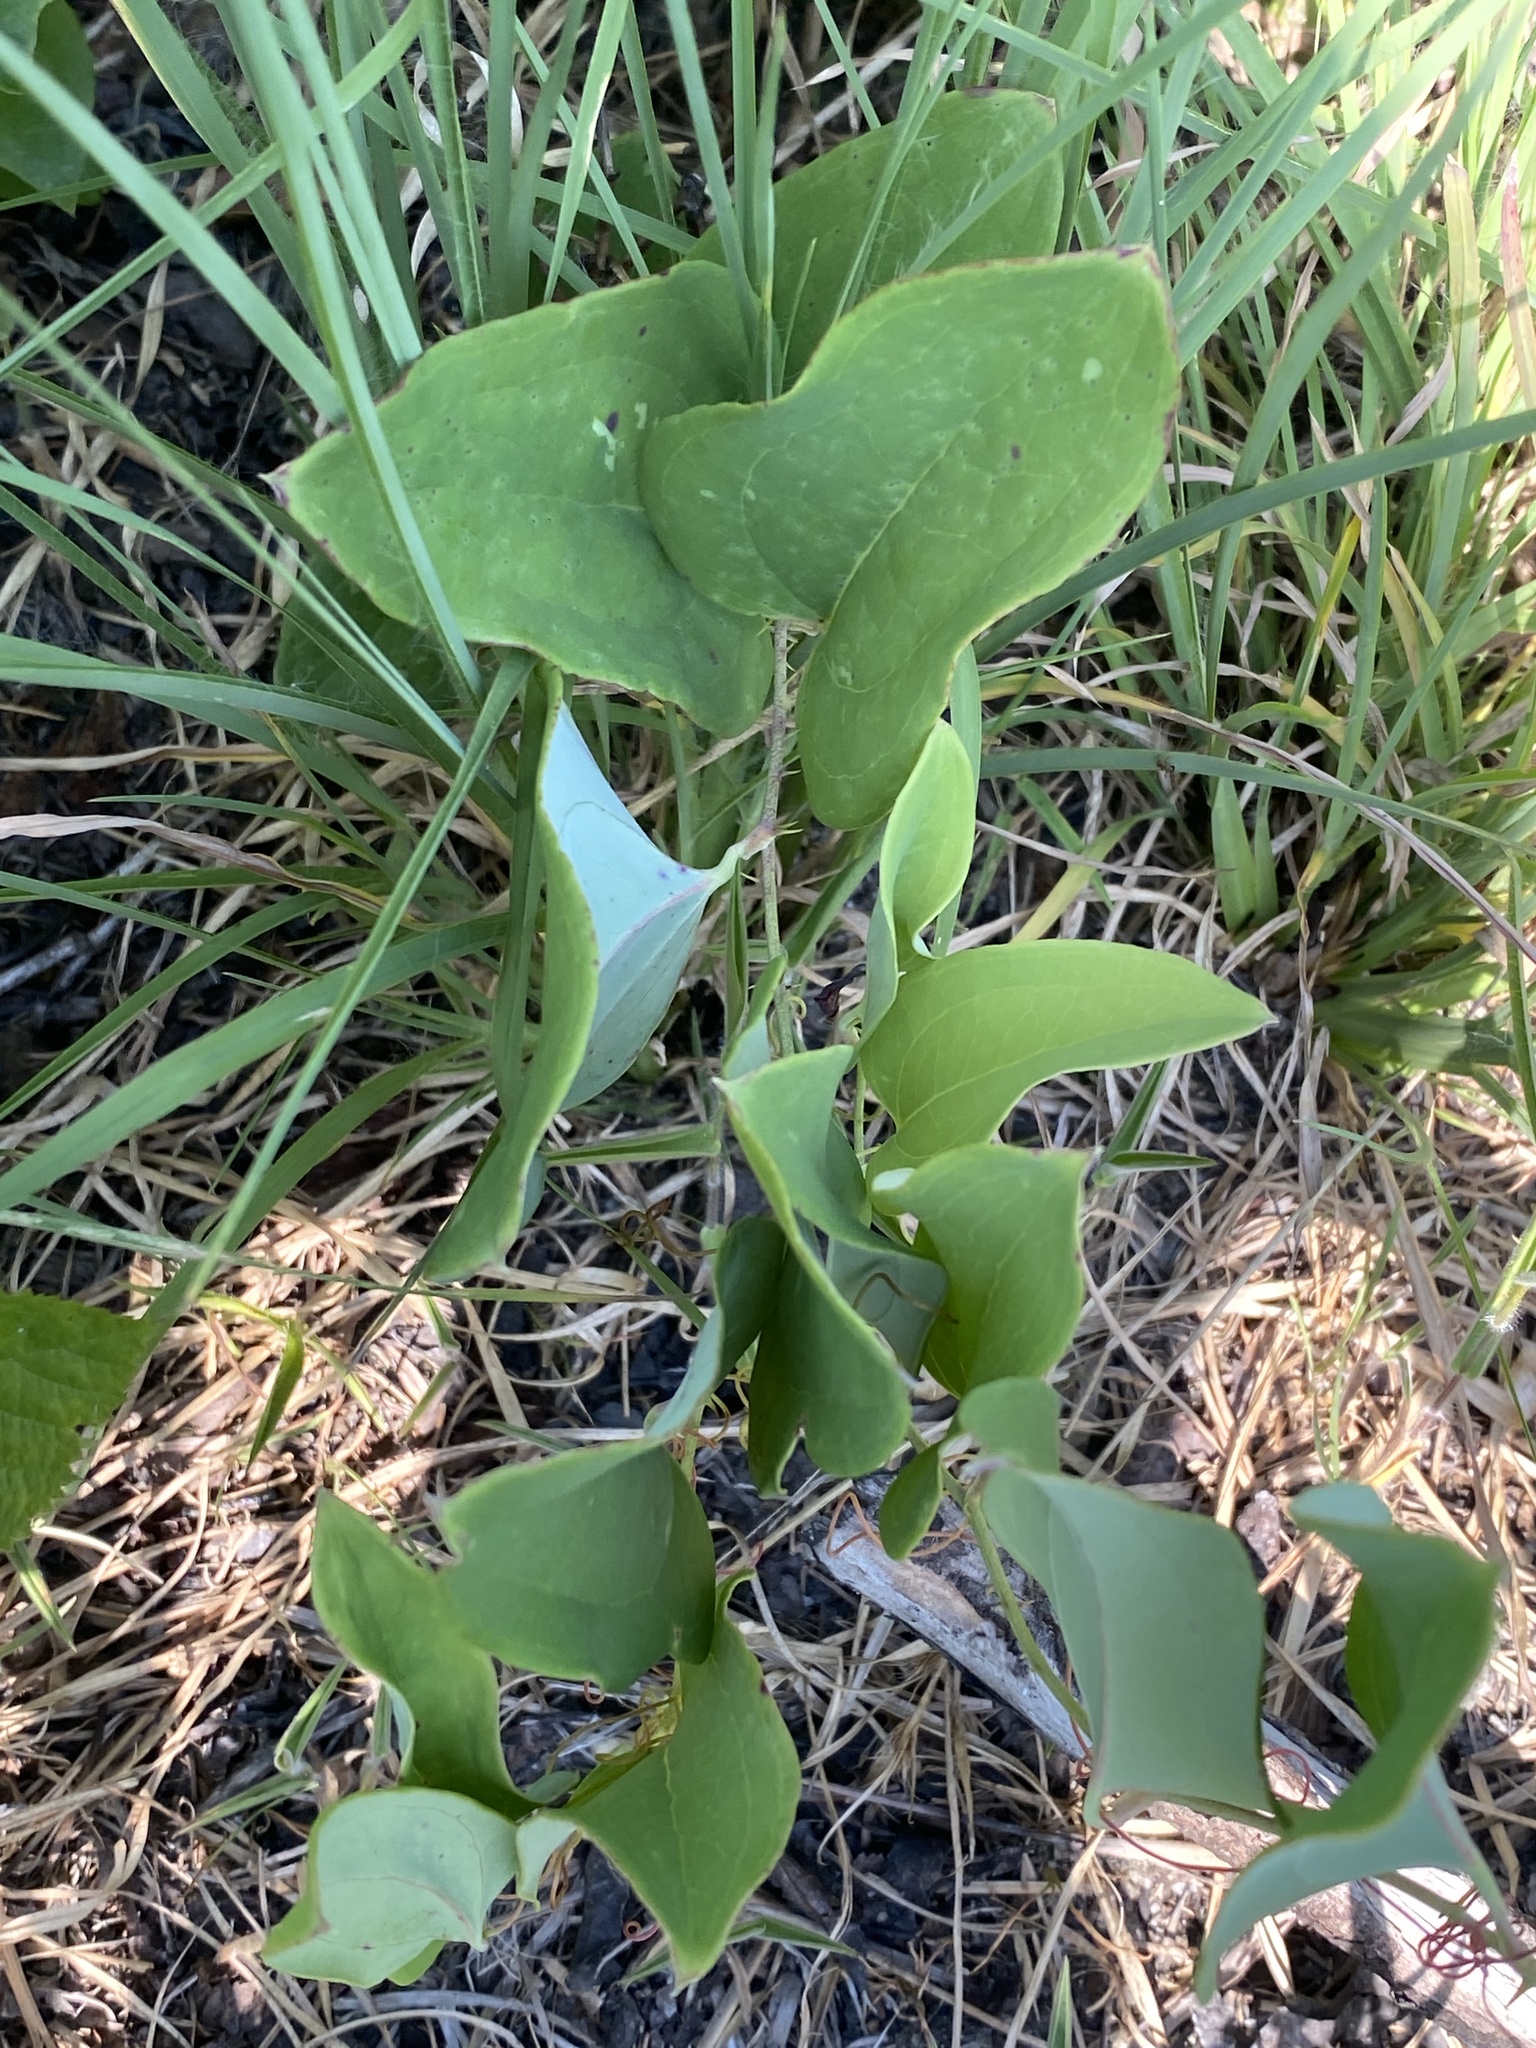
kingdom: Plantae
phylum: Tracheophyta
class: Liliopsida
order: Liliales
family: Smilacaceae
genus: Smilax
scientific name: Smilax glauca
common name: Cat greenbrier
